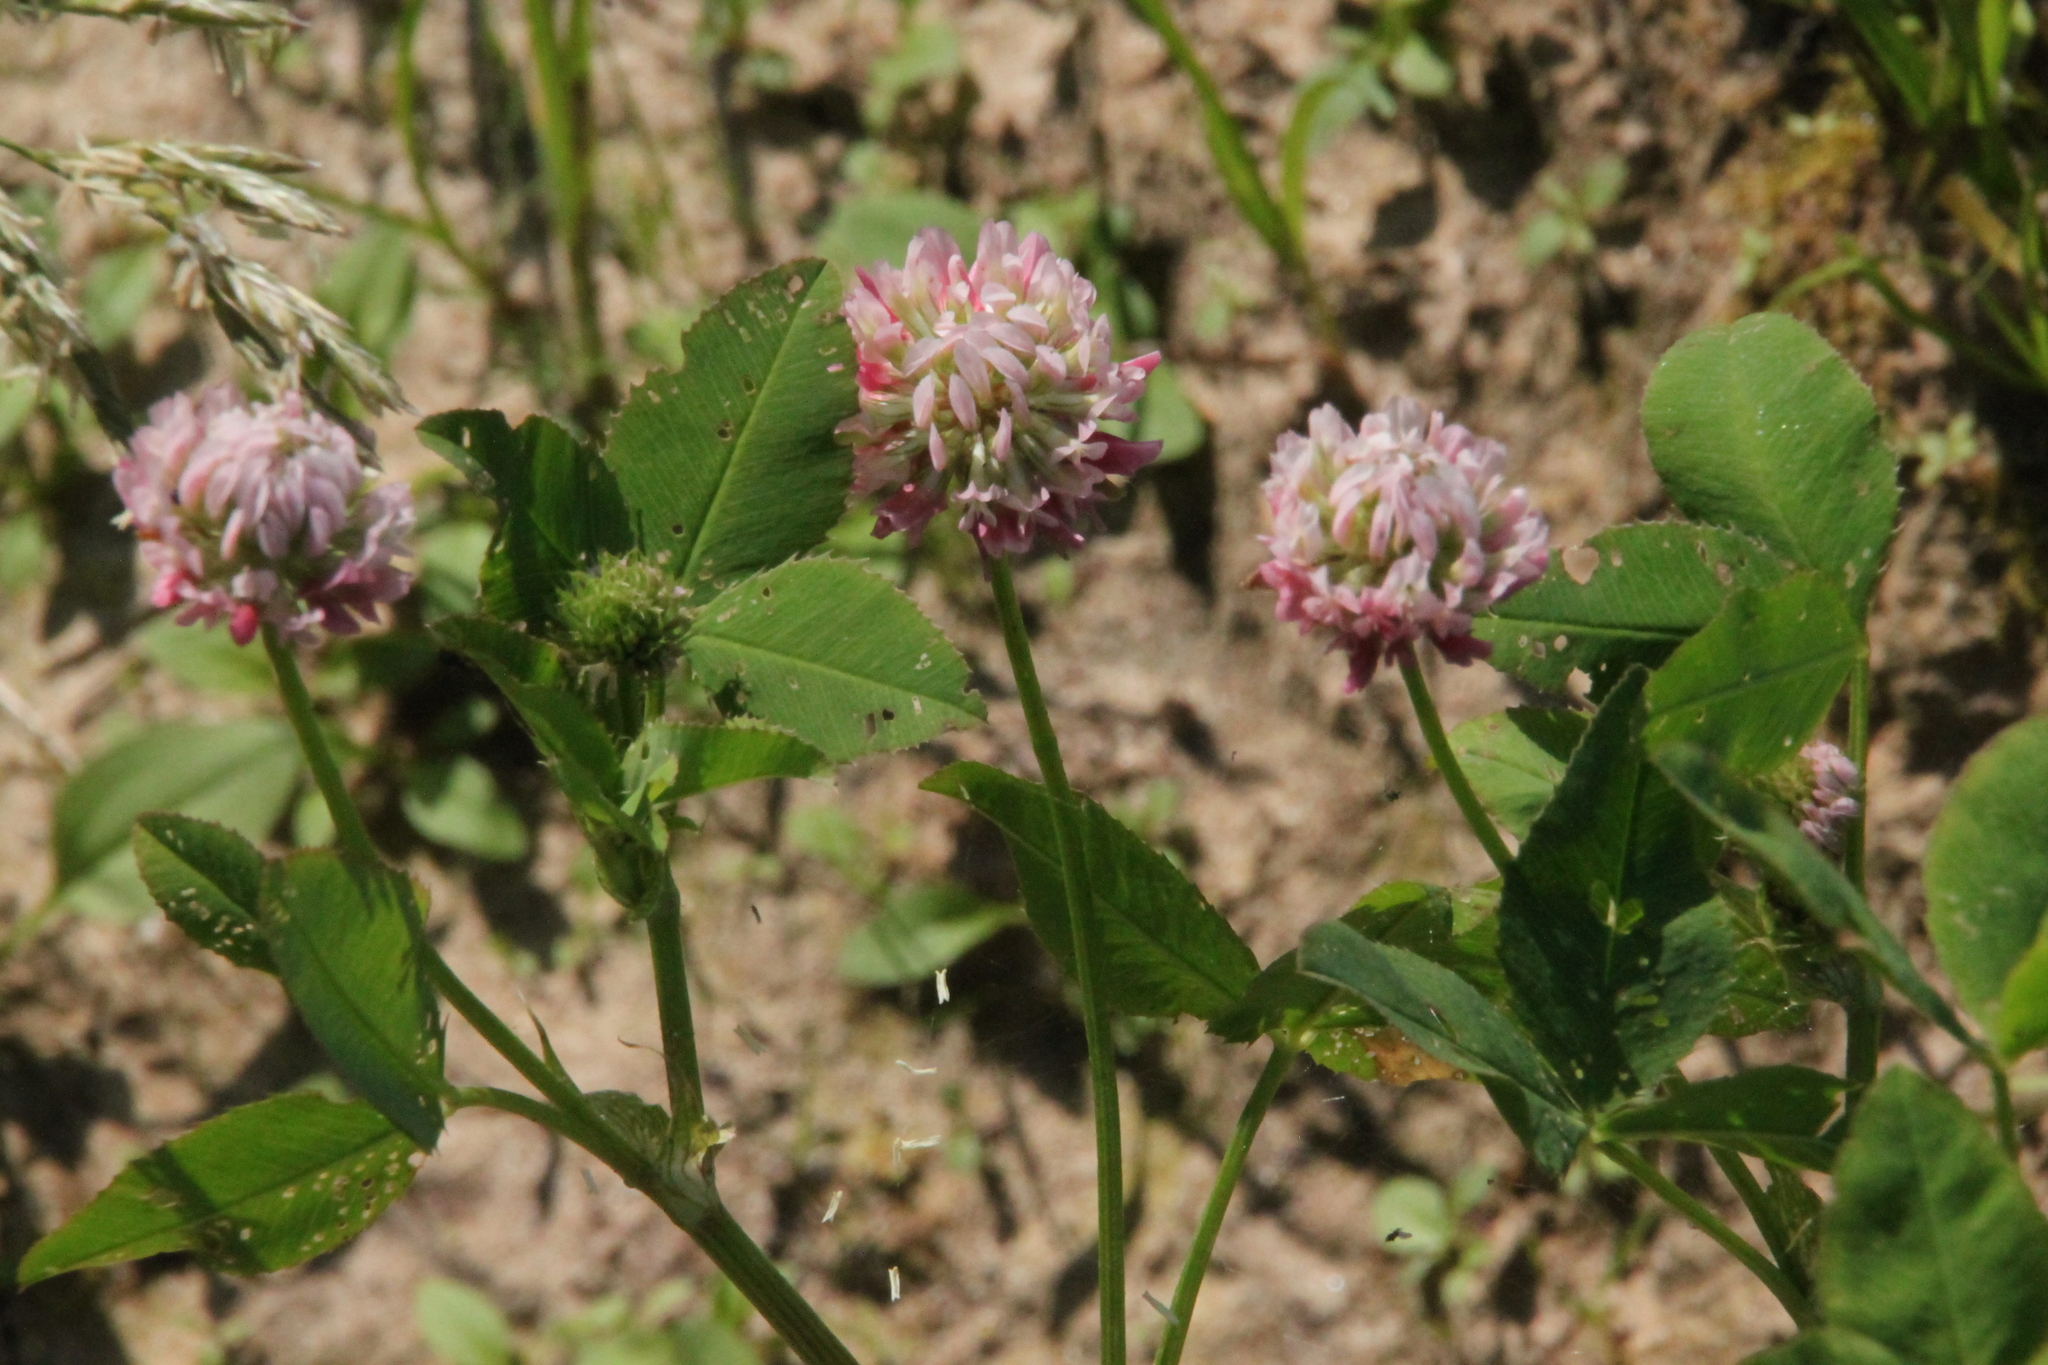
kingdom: Plantae
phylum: Tracheophyta
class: Magnoliopsida
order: Fabales
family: Fabaceae
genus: Trifolium
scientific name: Trifolium hybridum
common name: Alsike clover
